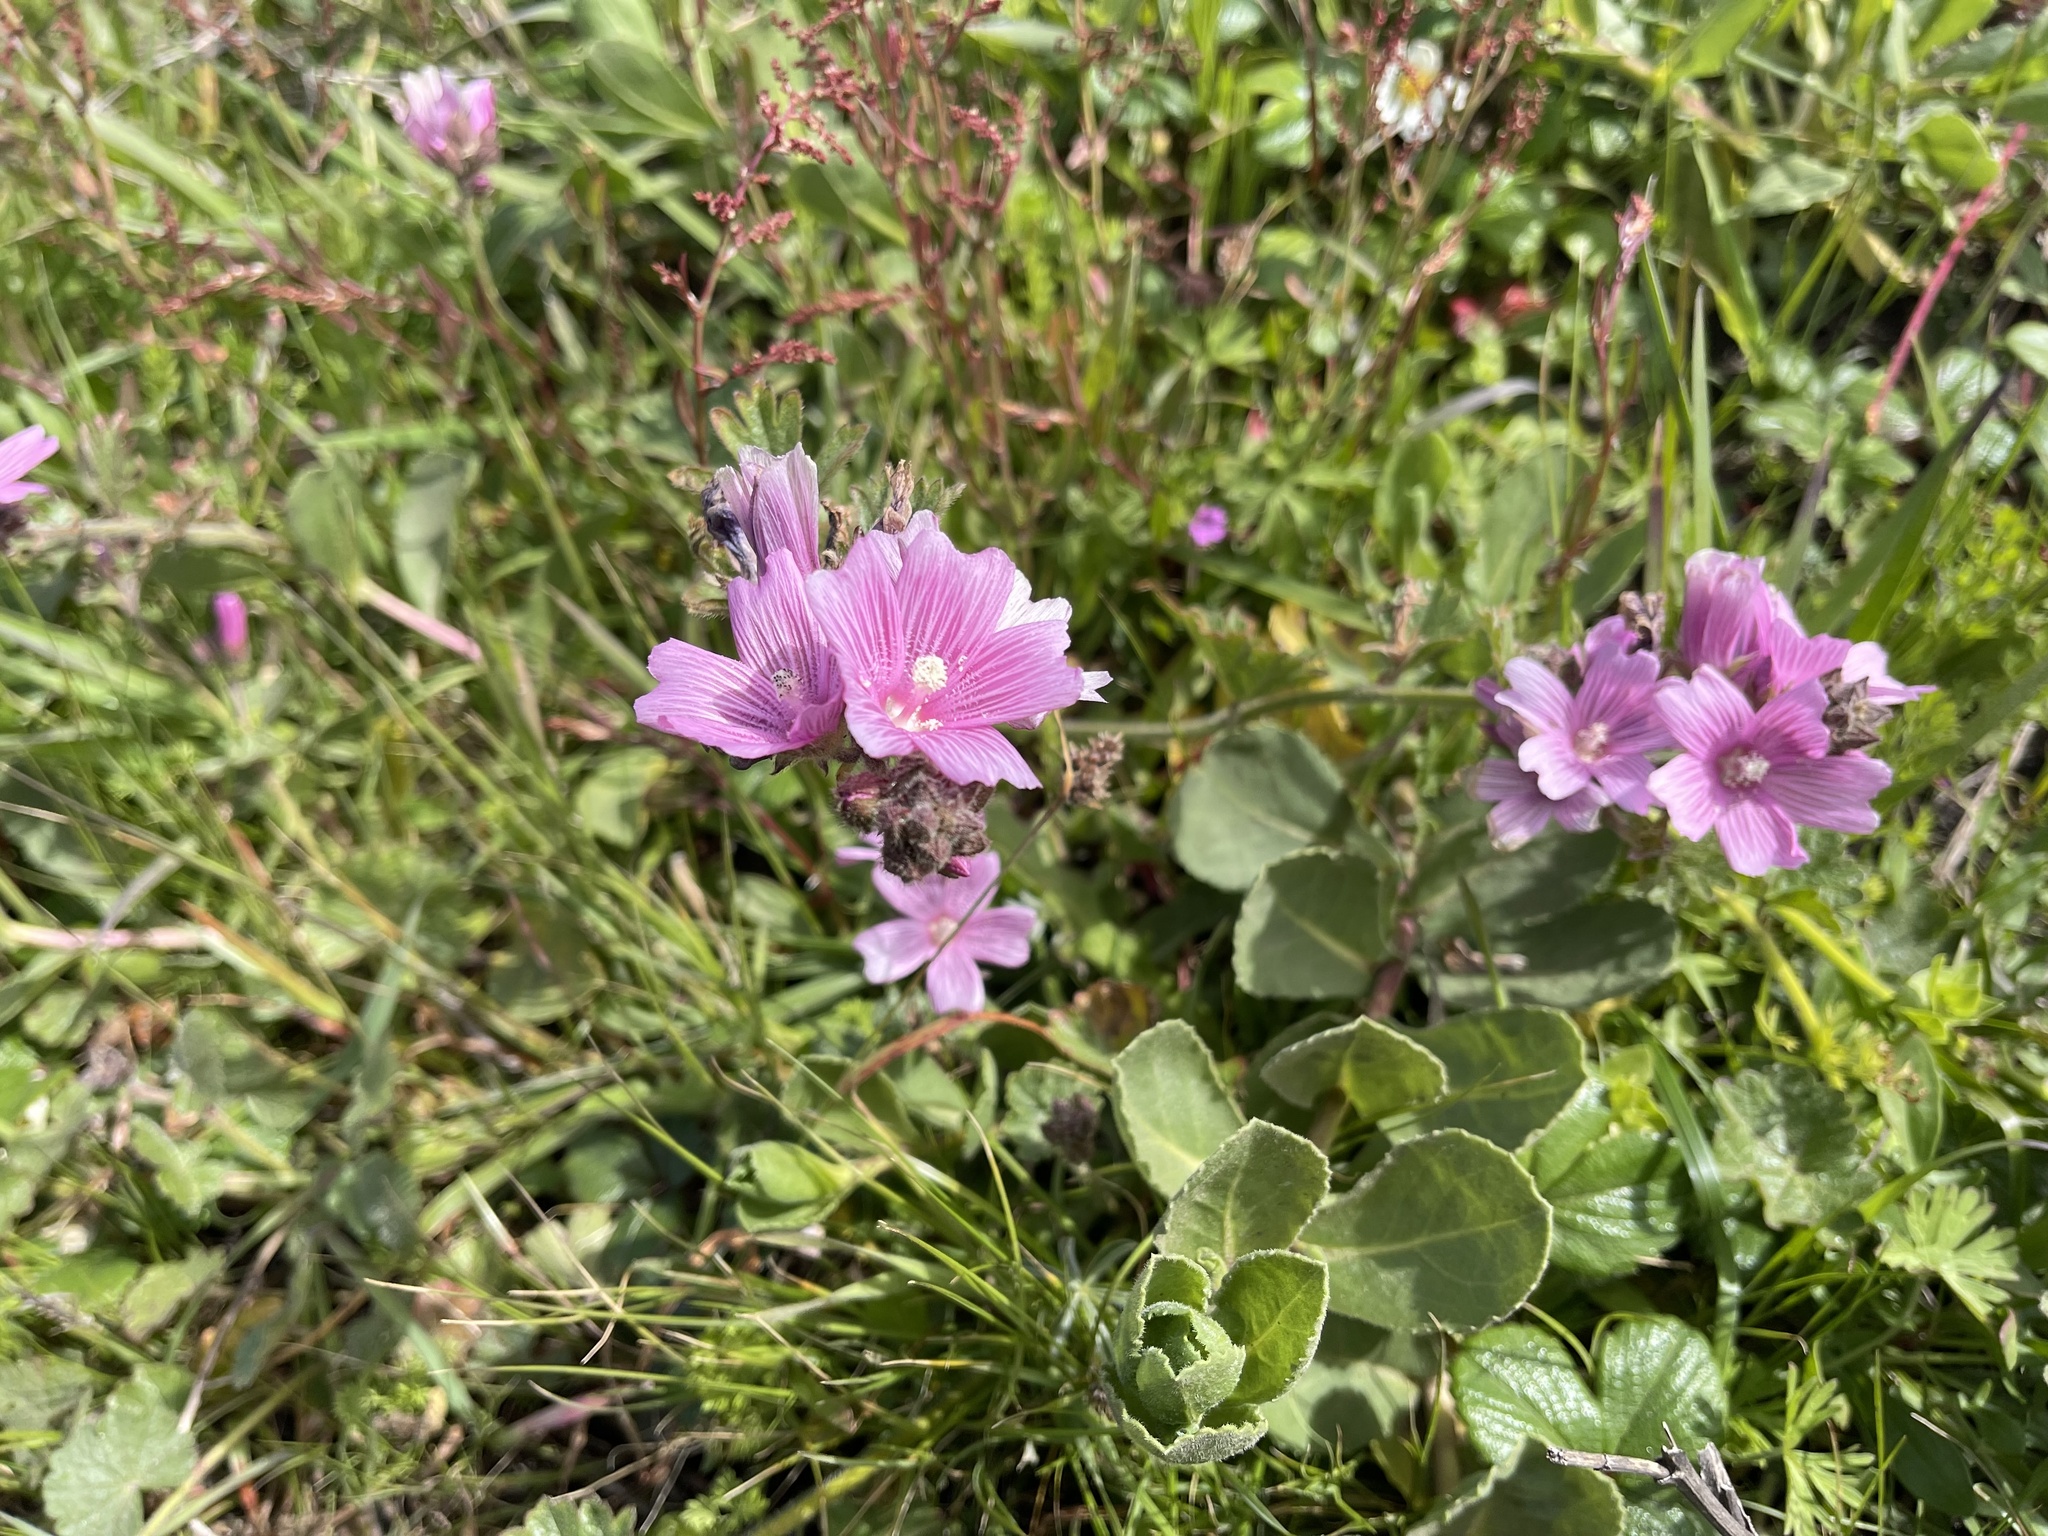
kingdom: Plantae
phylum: Tracheophyta
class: Magnoliopsida
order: Malvales
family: Malvaceae
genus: Sidalcea
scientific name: Sidalcea malviflora
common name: Greek mallow
